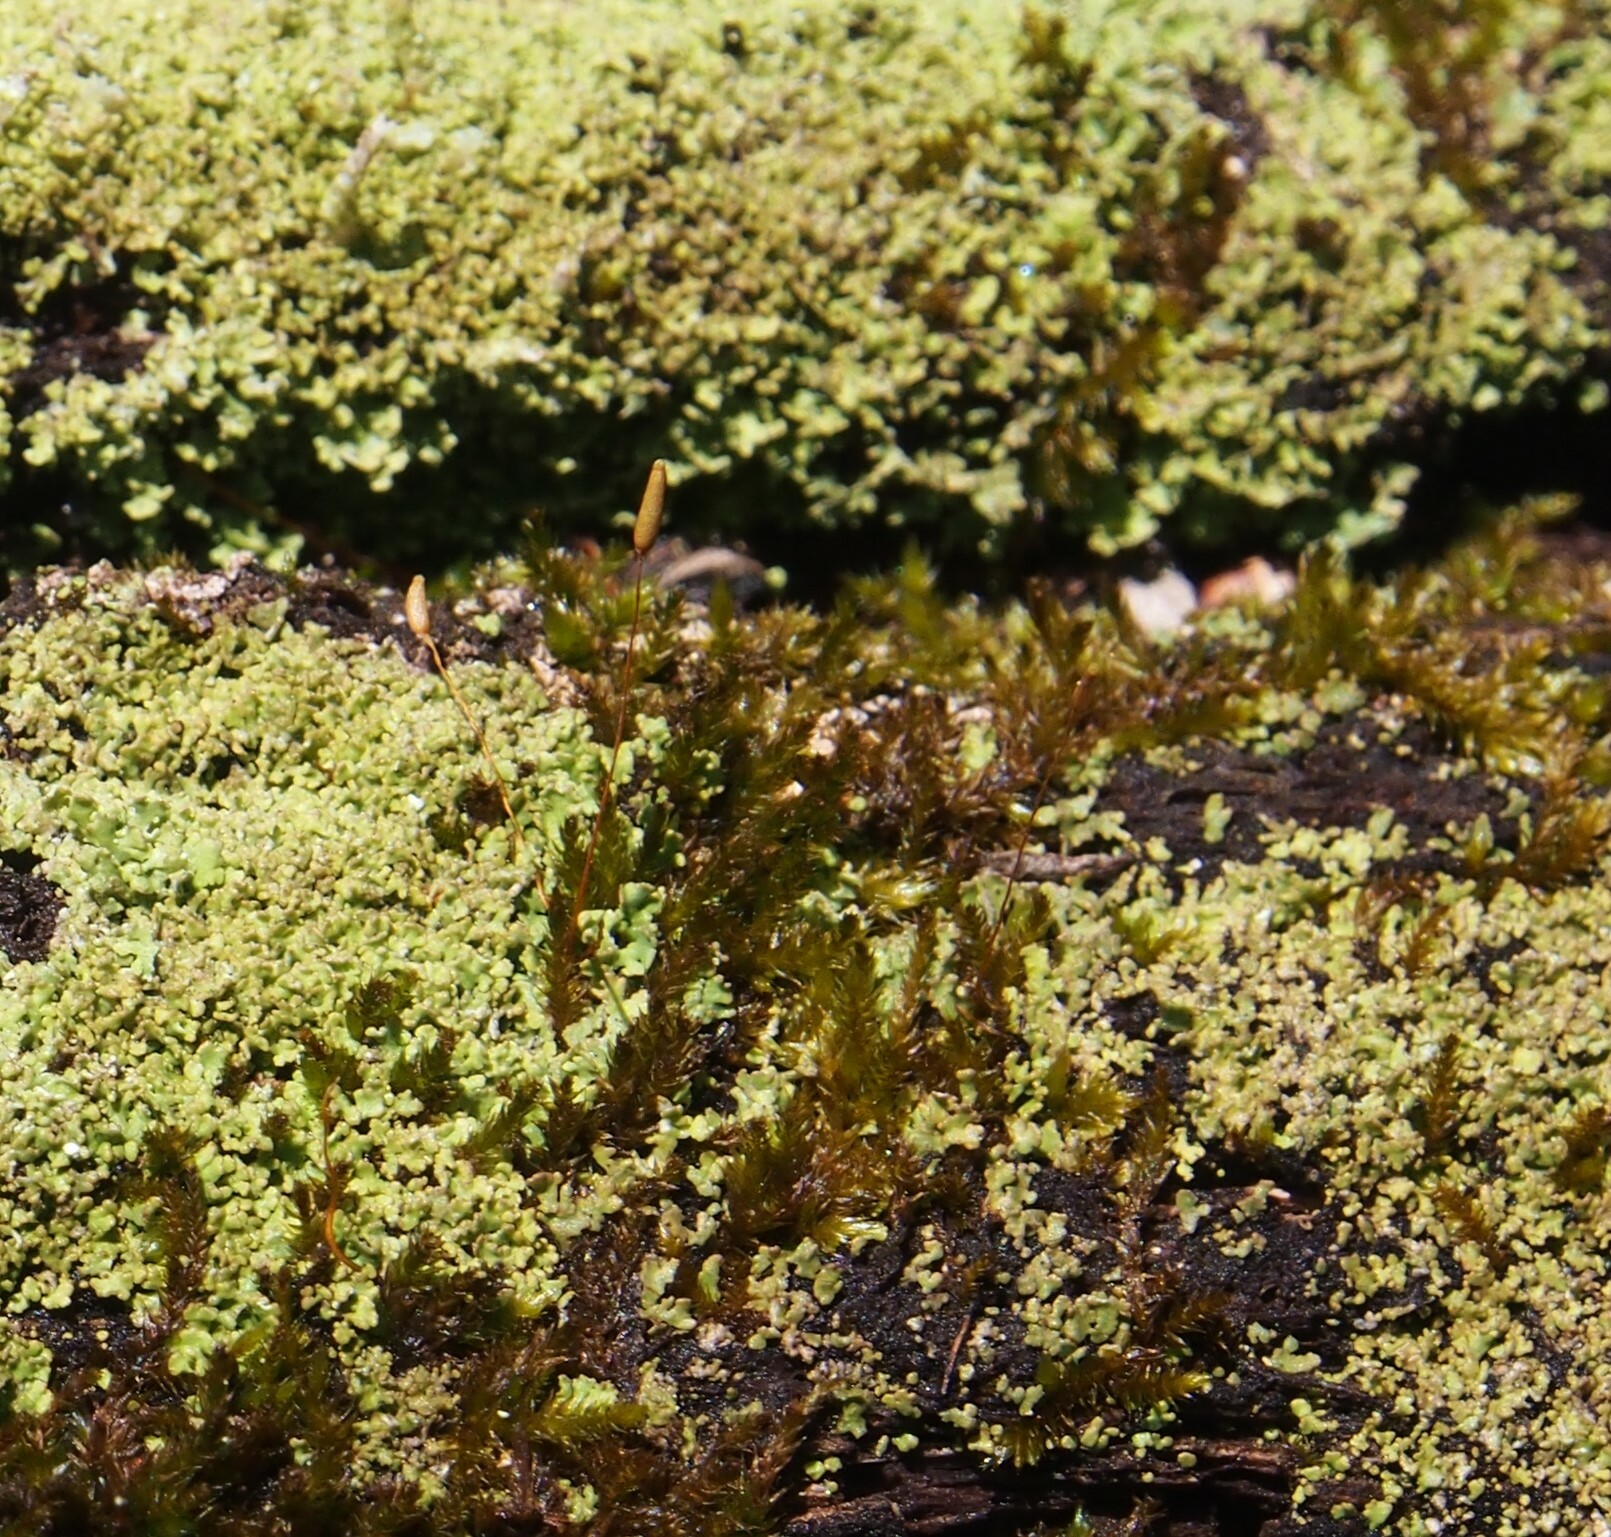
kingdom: Plantae
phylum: Bryophyta
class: Bryopsida
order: Hypnales
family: Pylaisiadelphaceae
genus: Platygyrium
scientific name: Platygyrium repens
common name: Flat-brocade moss
